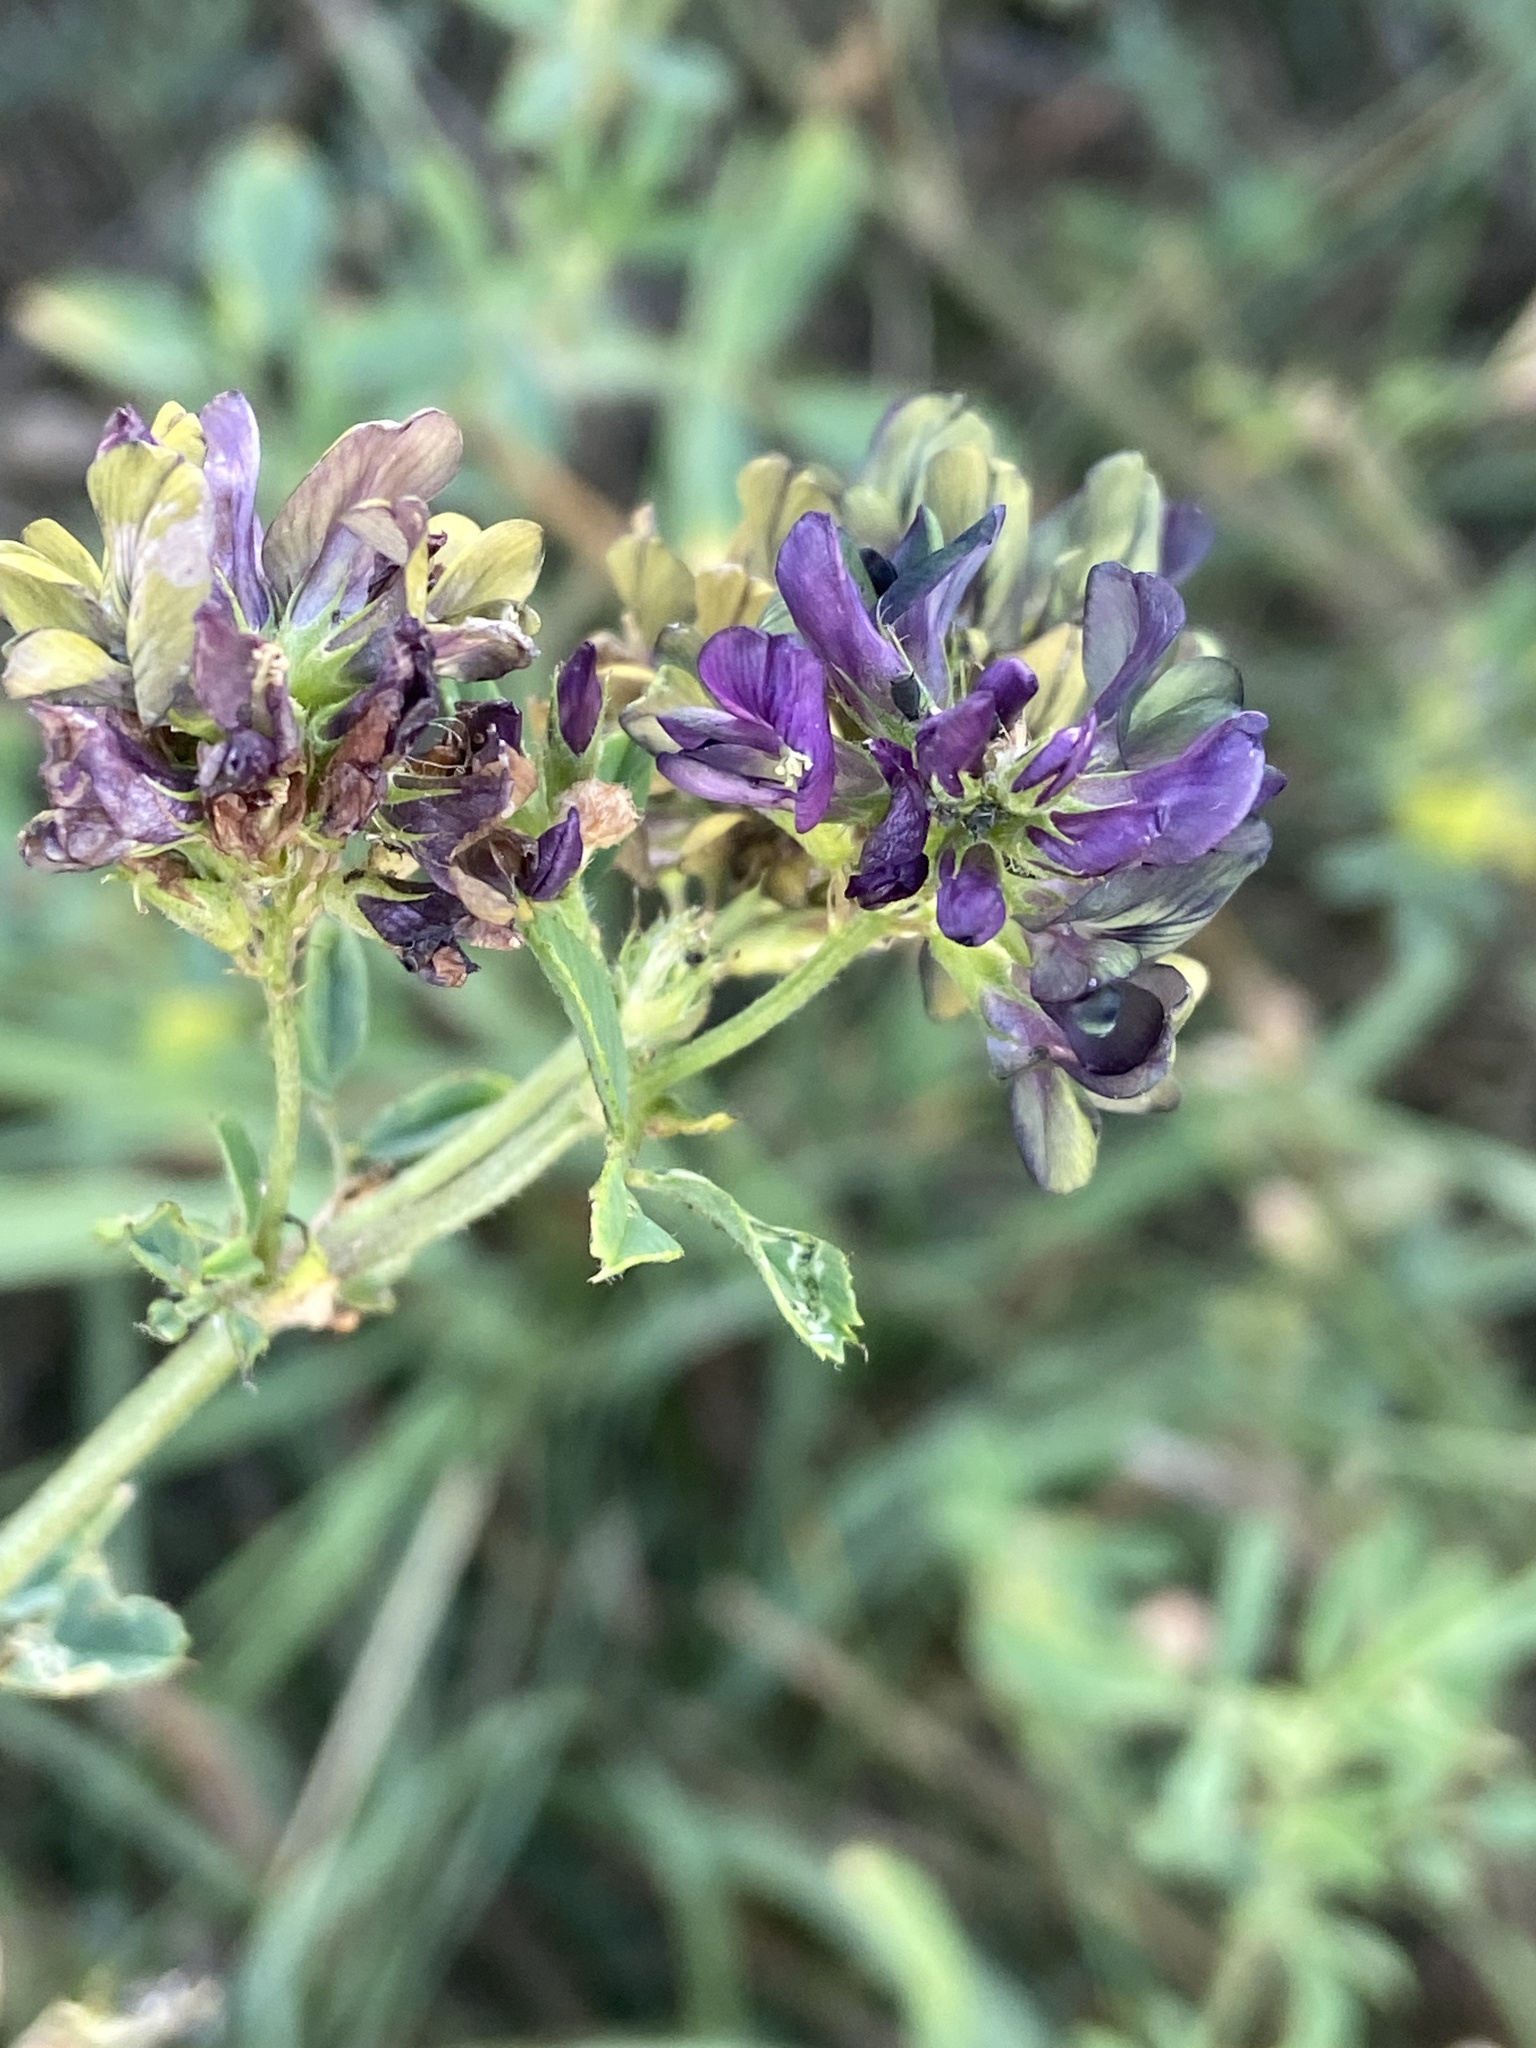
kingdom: Plantae
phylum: Tracheophyta
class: Magnoliopsida
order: Fabales
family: Fabaceae
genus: Medicago
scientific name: Medicago varia
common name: Sand lucerne
